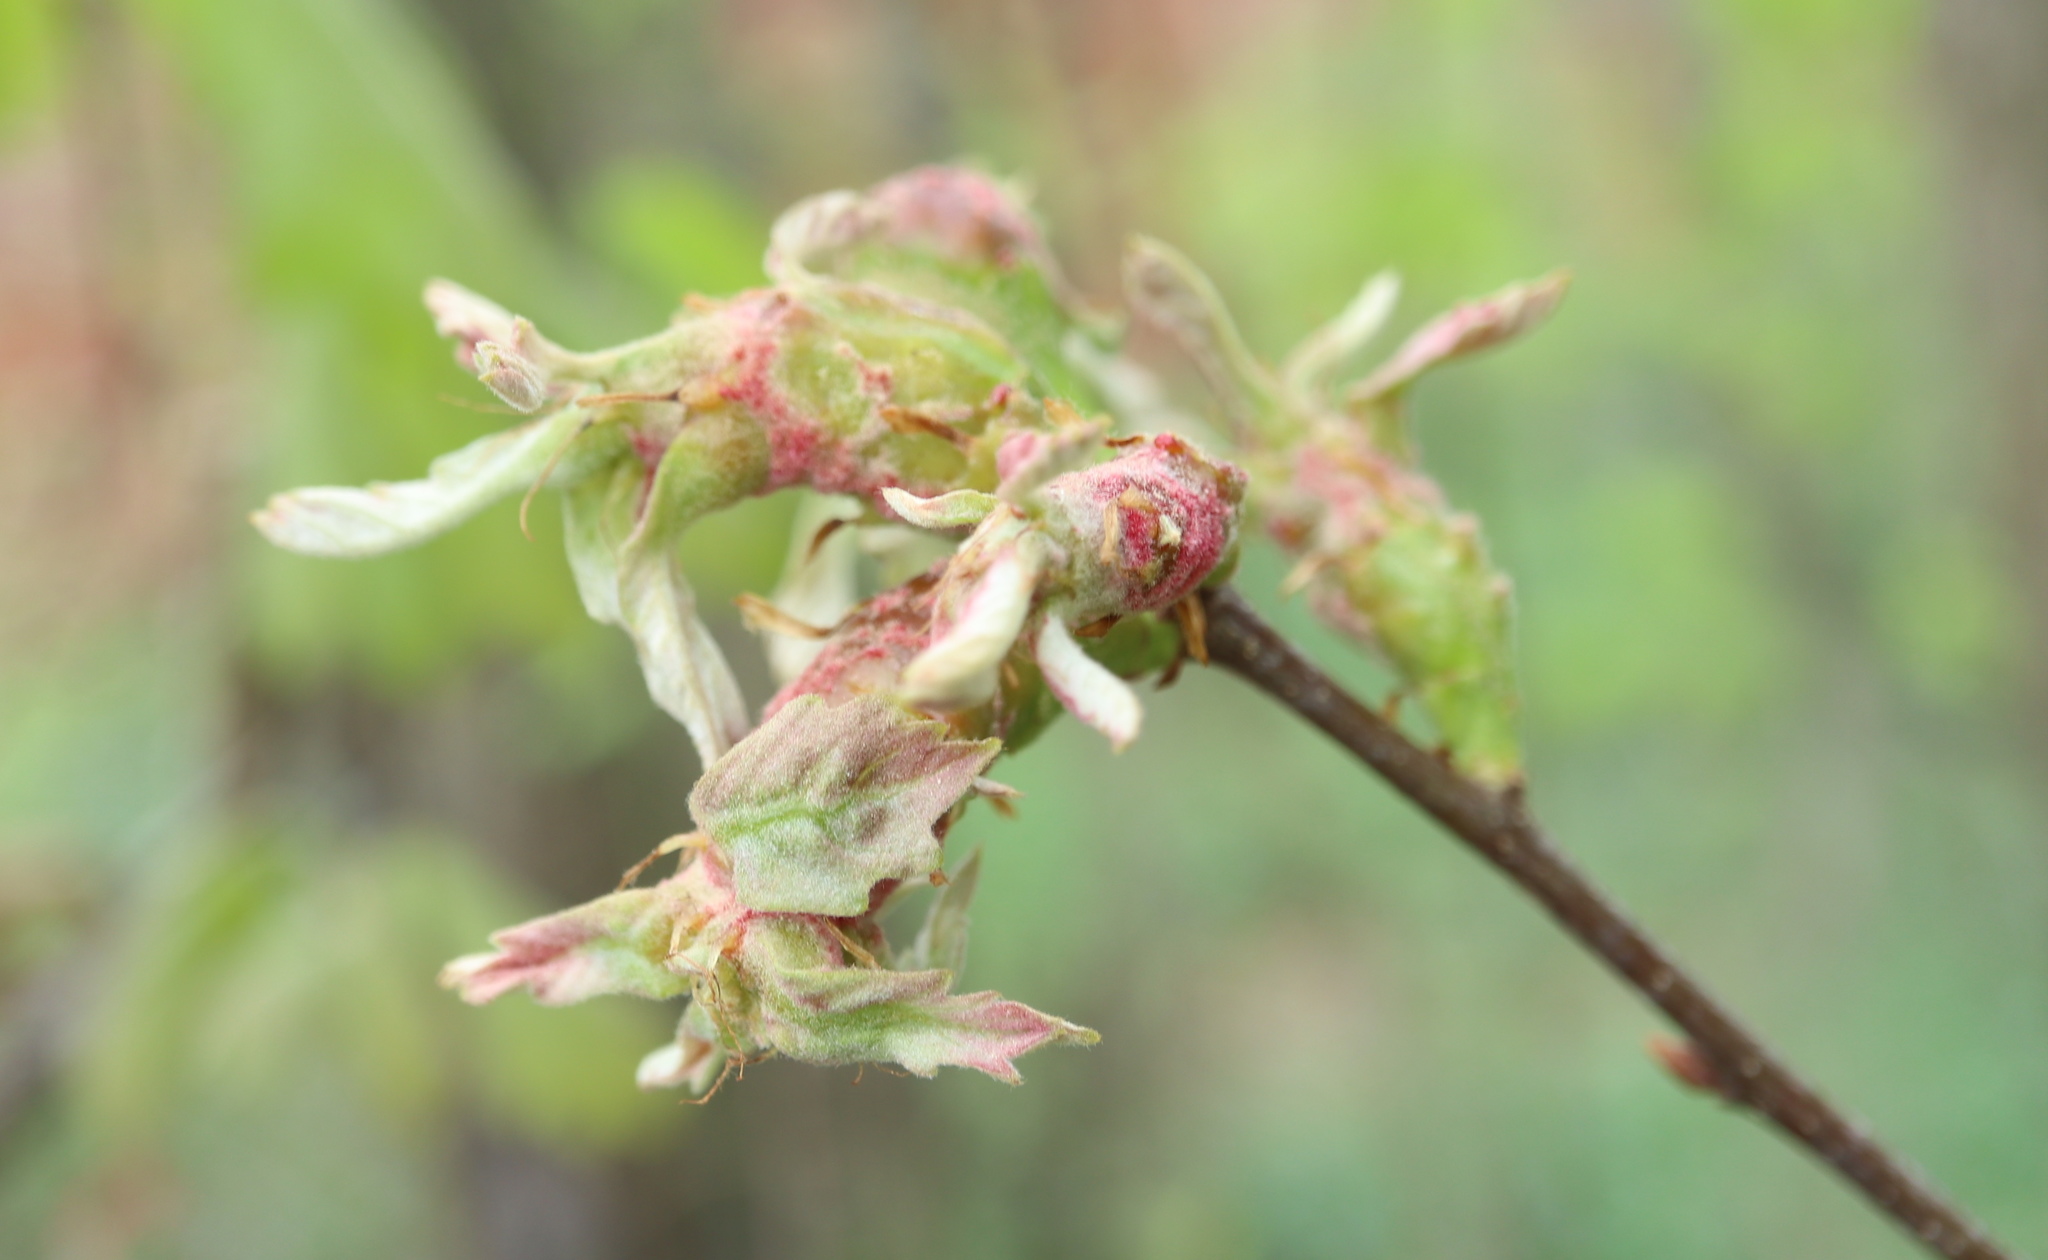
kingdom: Animalia
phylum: Arthropoda
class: Insecta
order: Hymenoptera
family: Cynipidae
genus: Neuroterus
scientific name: Neuroterus quercusbaccarum
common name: Common spangle gall
